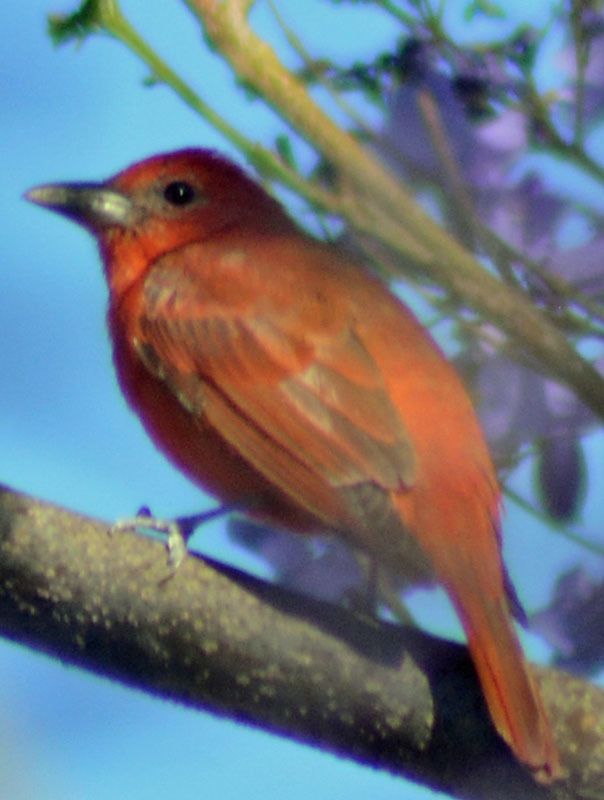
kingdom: Animalia
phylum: Chordata
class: Aves
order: Passeriformes
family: Cardinalidae
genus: Piranga
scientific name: Piranga flava
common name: Red tanager
